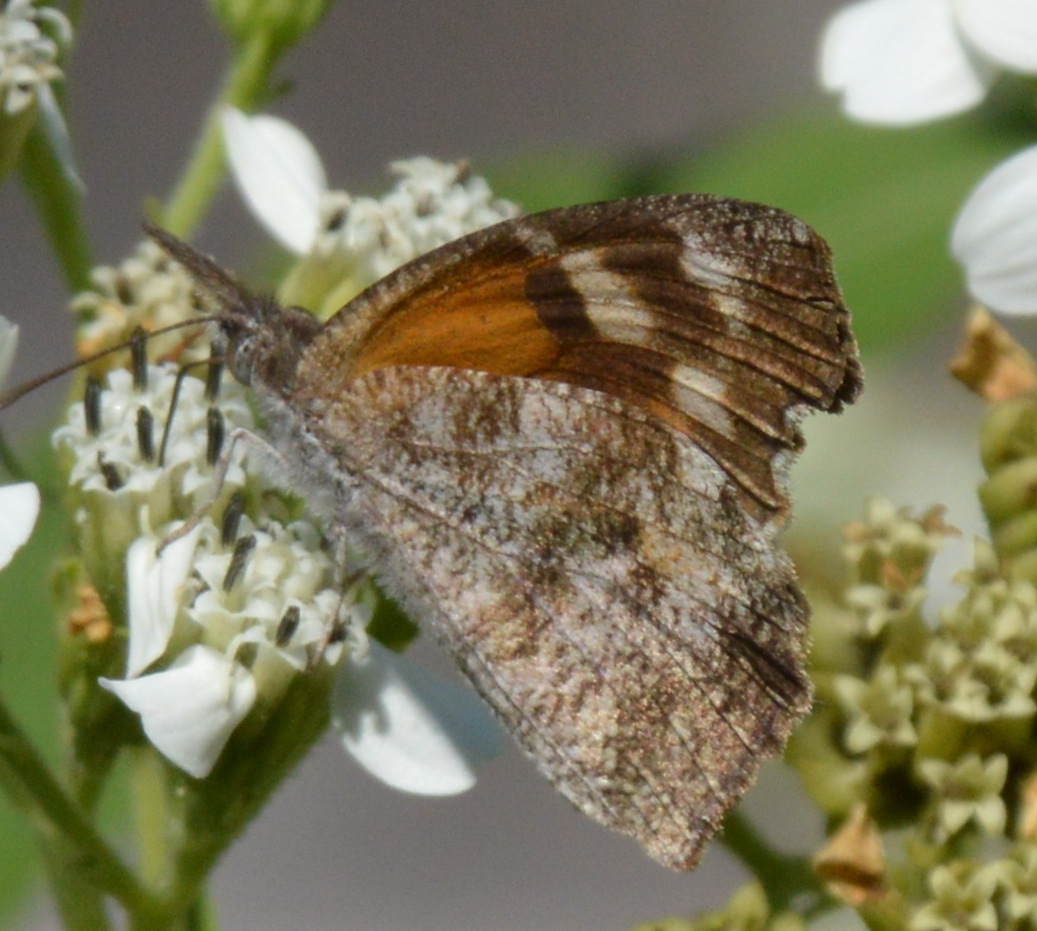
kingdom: Animalia
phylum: Arthropoda
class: Insecta
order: Lepidoptera
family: Nymphalidae
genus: Libytheana
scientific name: Libytheana carinenta
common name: American snout
